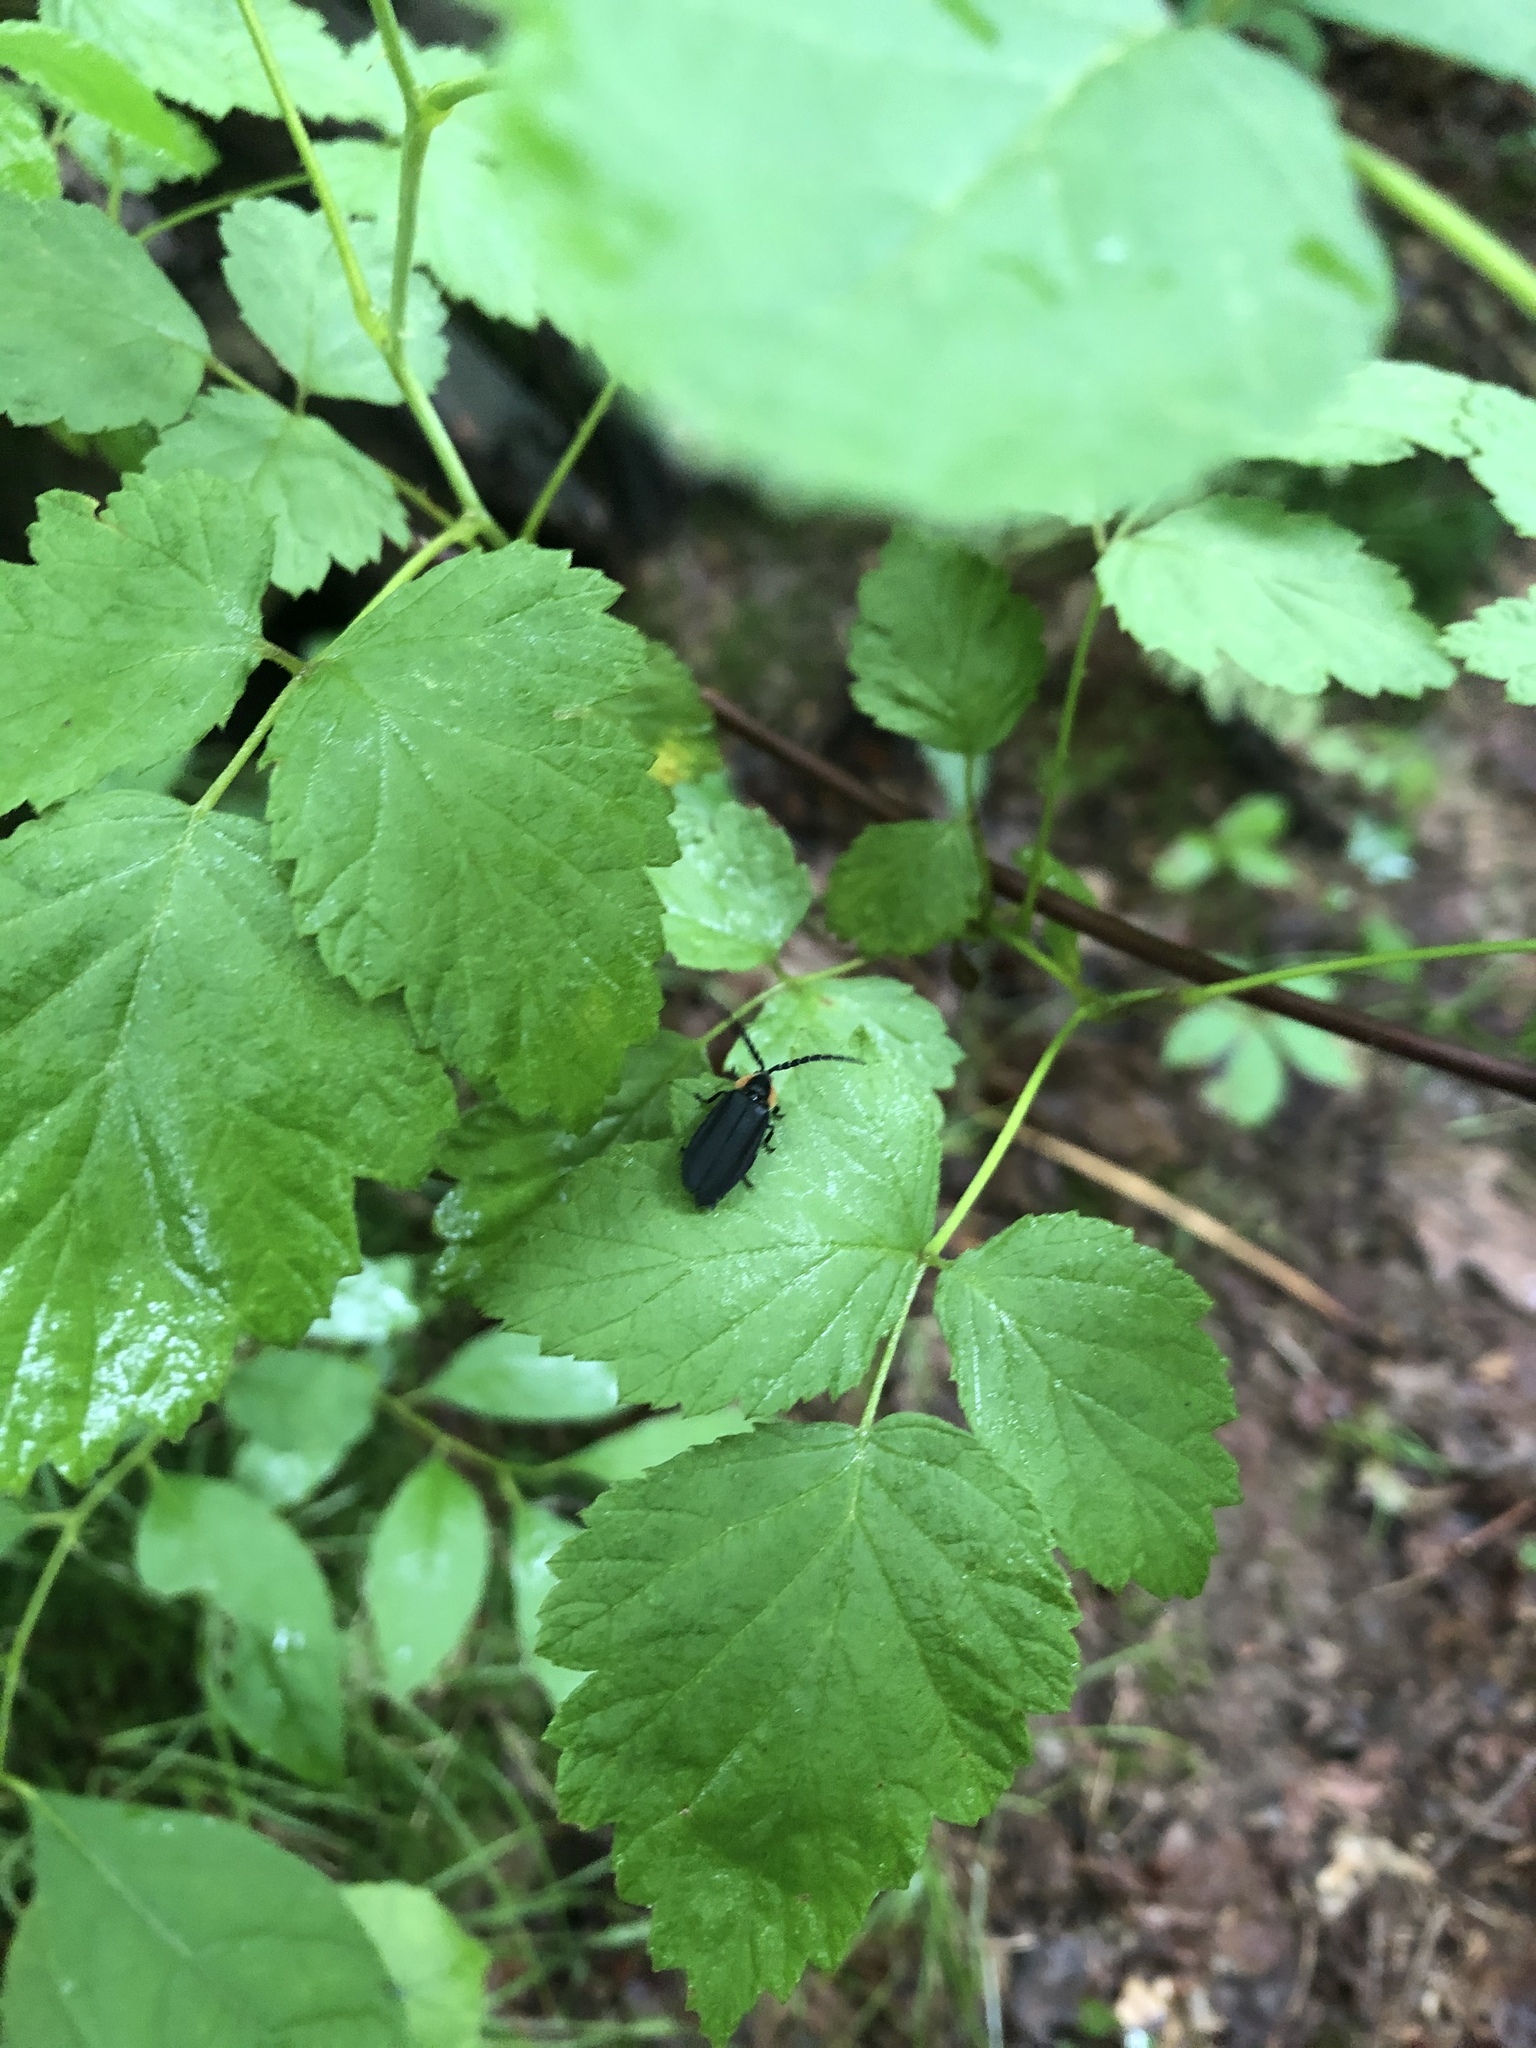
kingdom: Animalia
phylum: Arthropoda
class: Insecta
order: Coleoptera
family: Lampyridae
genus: Lucidota
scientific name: Lucidota atra
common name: Black firefly
